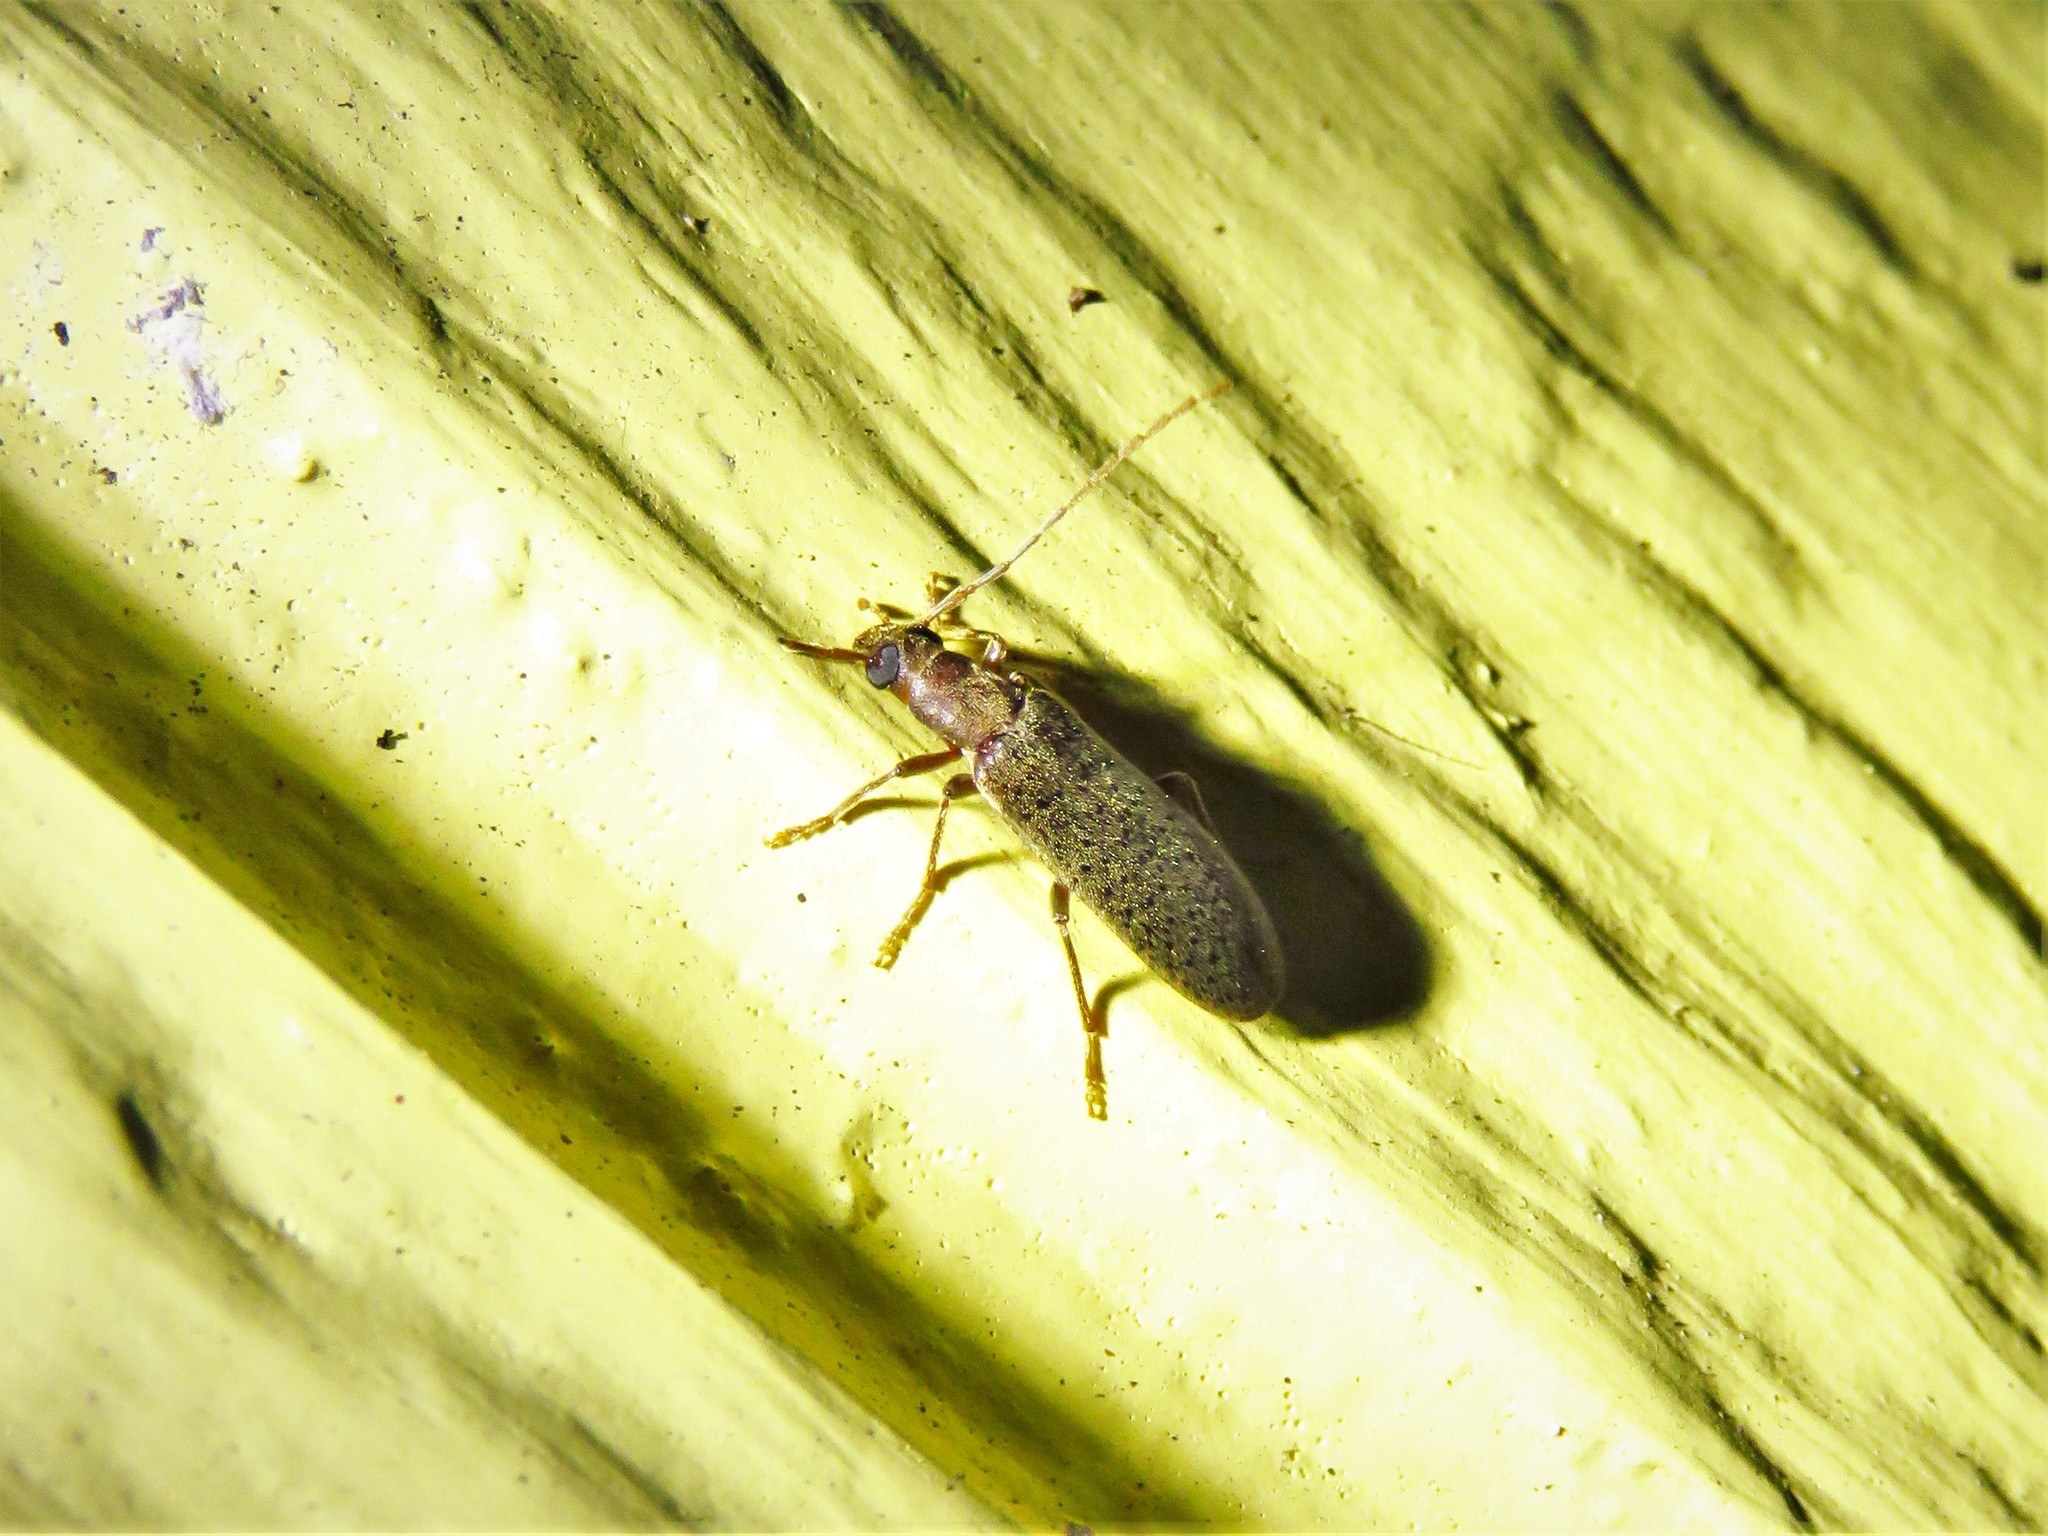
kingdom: Animalia
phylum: Arthropoda
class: Insecta
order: Coleoptera
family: Oedemeridae
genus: Sparedrus
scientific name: Sparedrus aspersus
